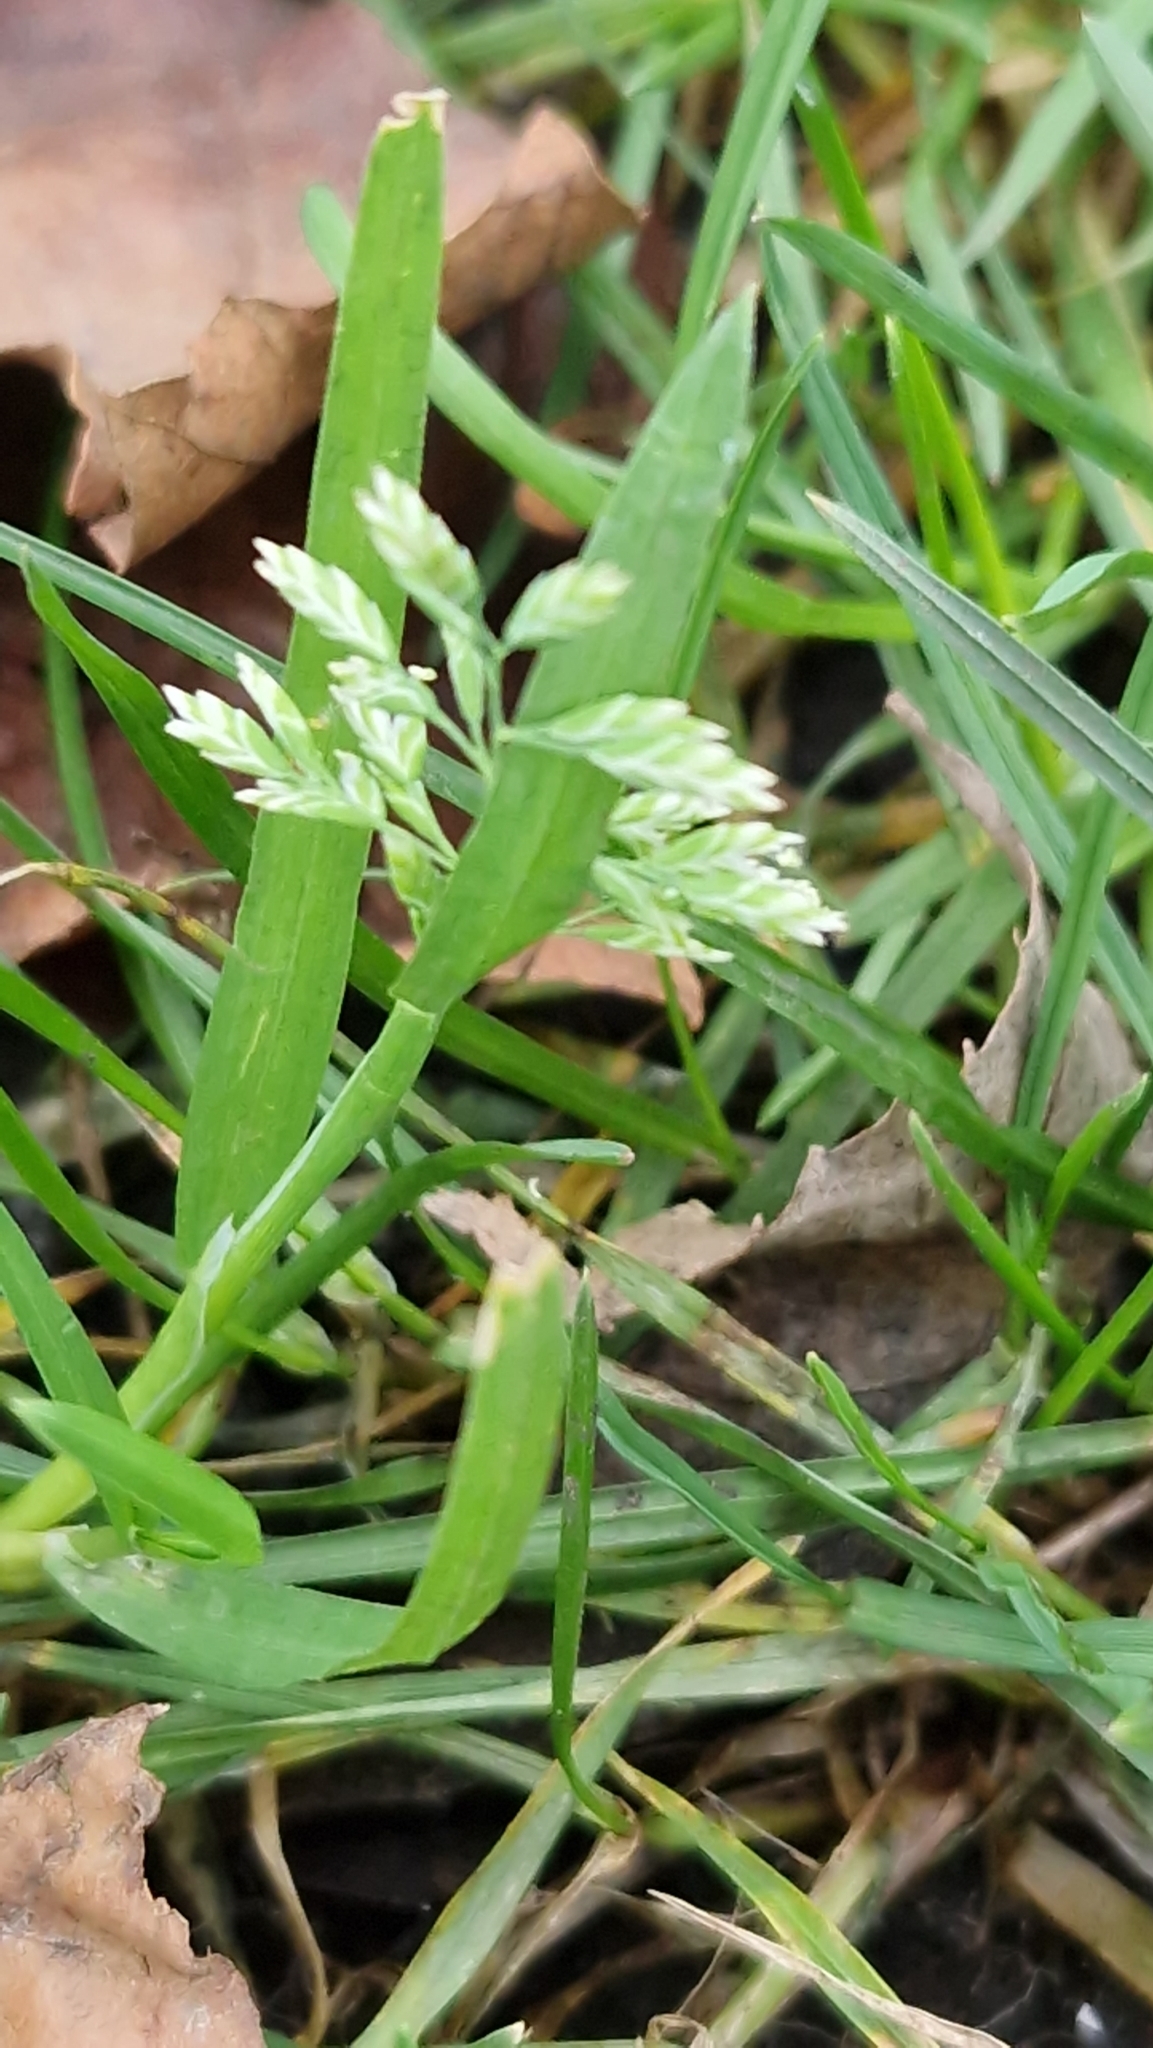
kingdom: Plantae
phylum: Tracheophyta
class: Liliopsida
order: Poales
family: Poaceae
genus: Poa
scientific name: Poa annua
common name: Annual bluegrass
